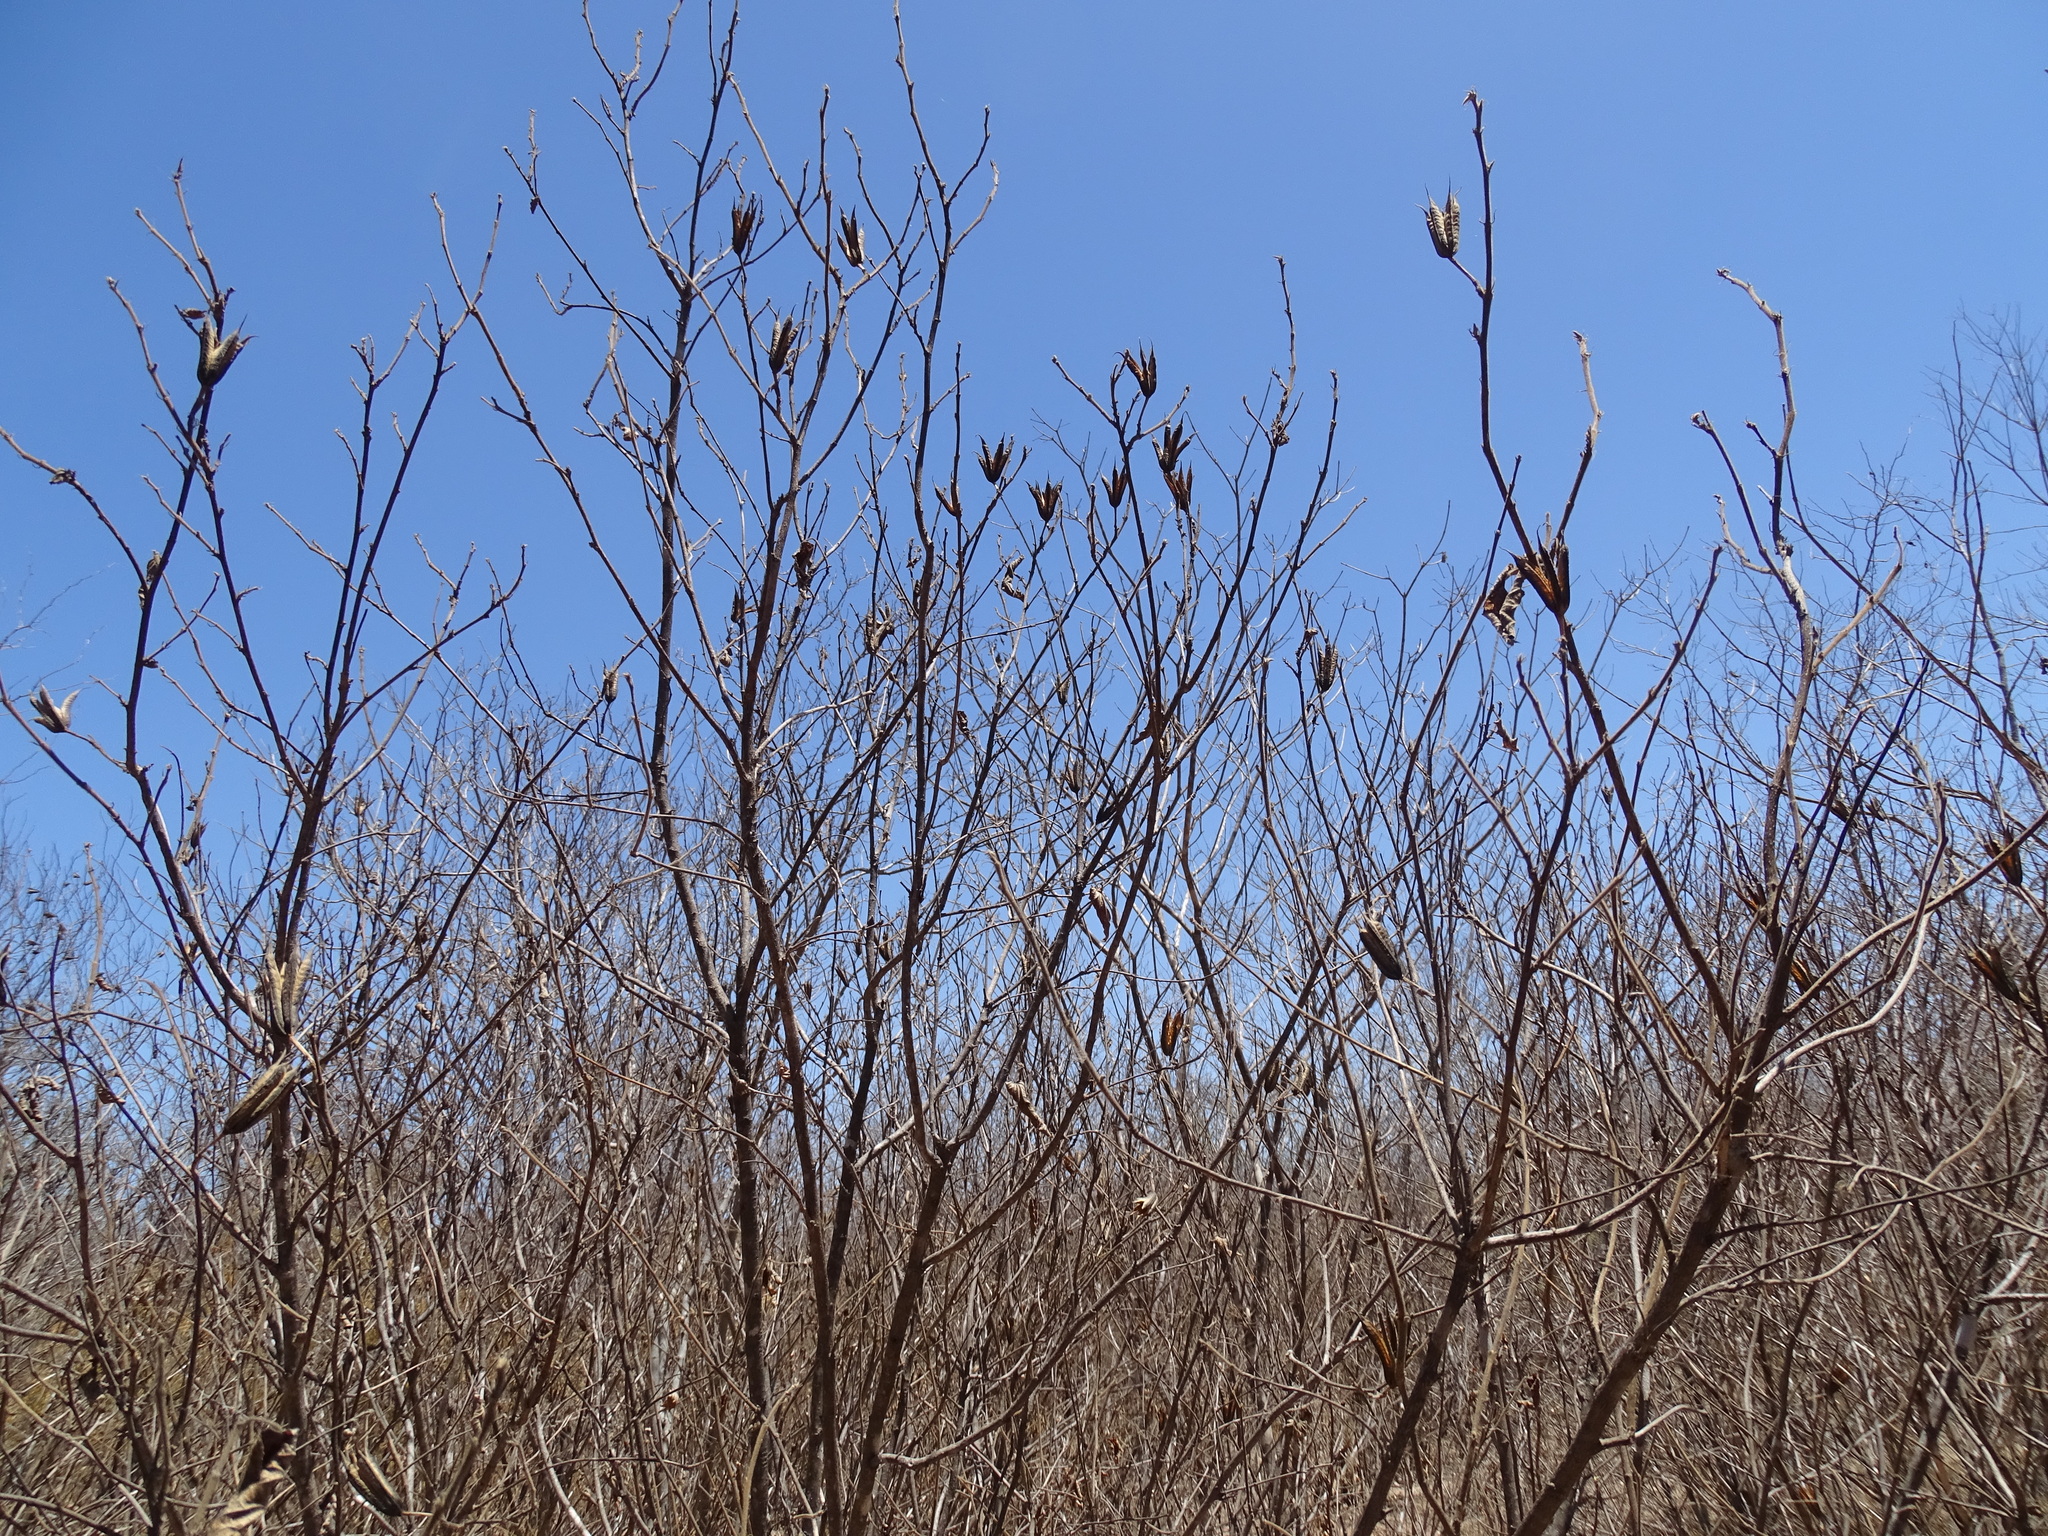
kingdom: Plantae
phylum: Tracheophyta
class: Magnoliopsida
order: Malvales
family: Malvaceae
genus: Helicteres
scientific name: Helicteres vegae
